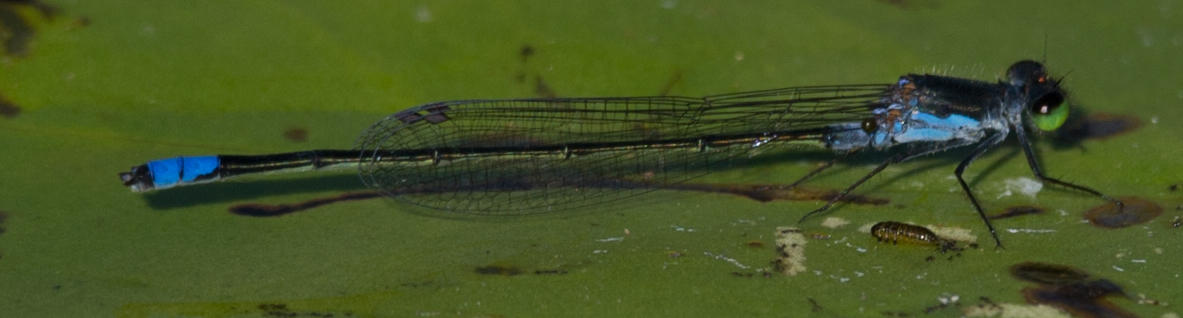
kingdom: Animalia
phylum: Arthropoda
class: Insecta
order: Odonata
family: Coenagrionidae
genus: Pseudagrion
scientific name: Pseudagrion deningi
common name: Dening's sprite
